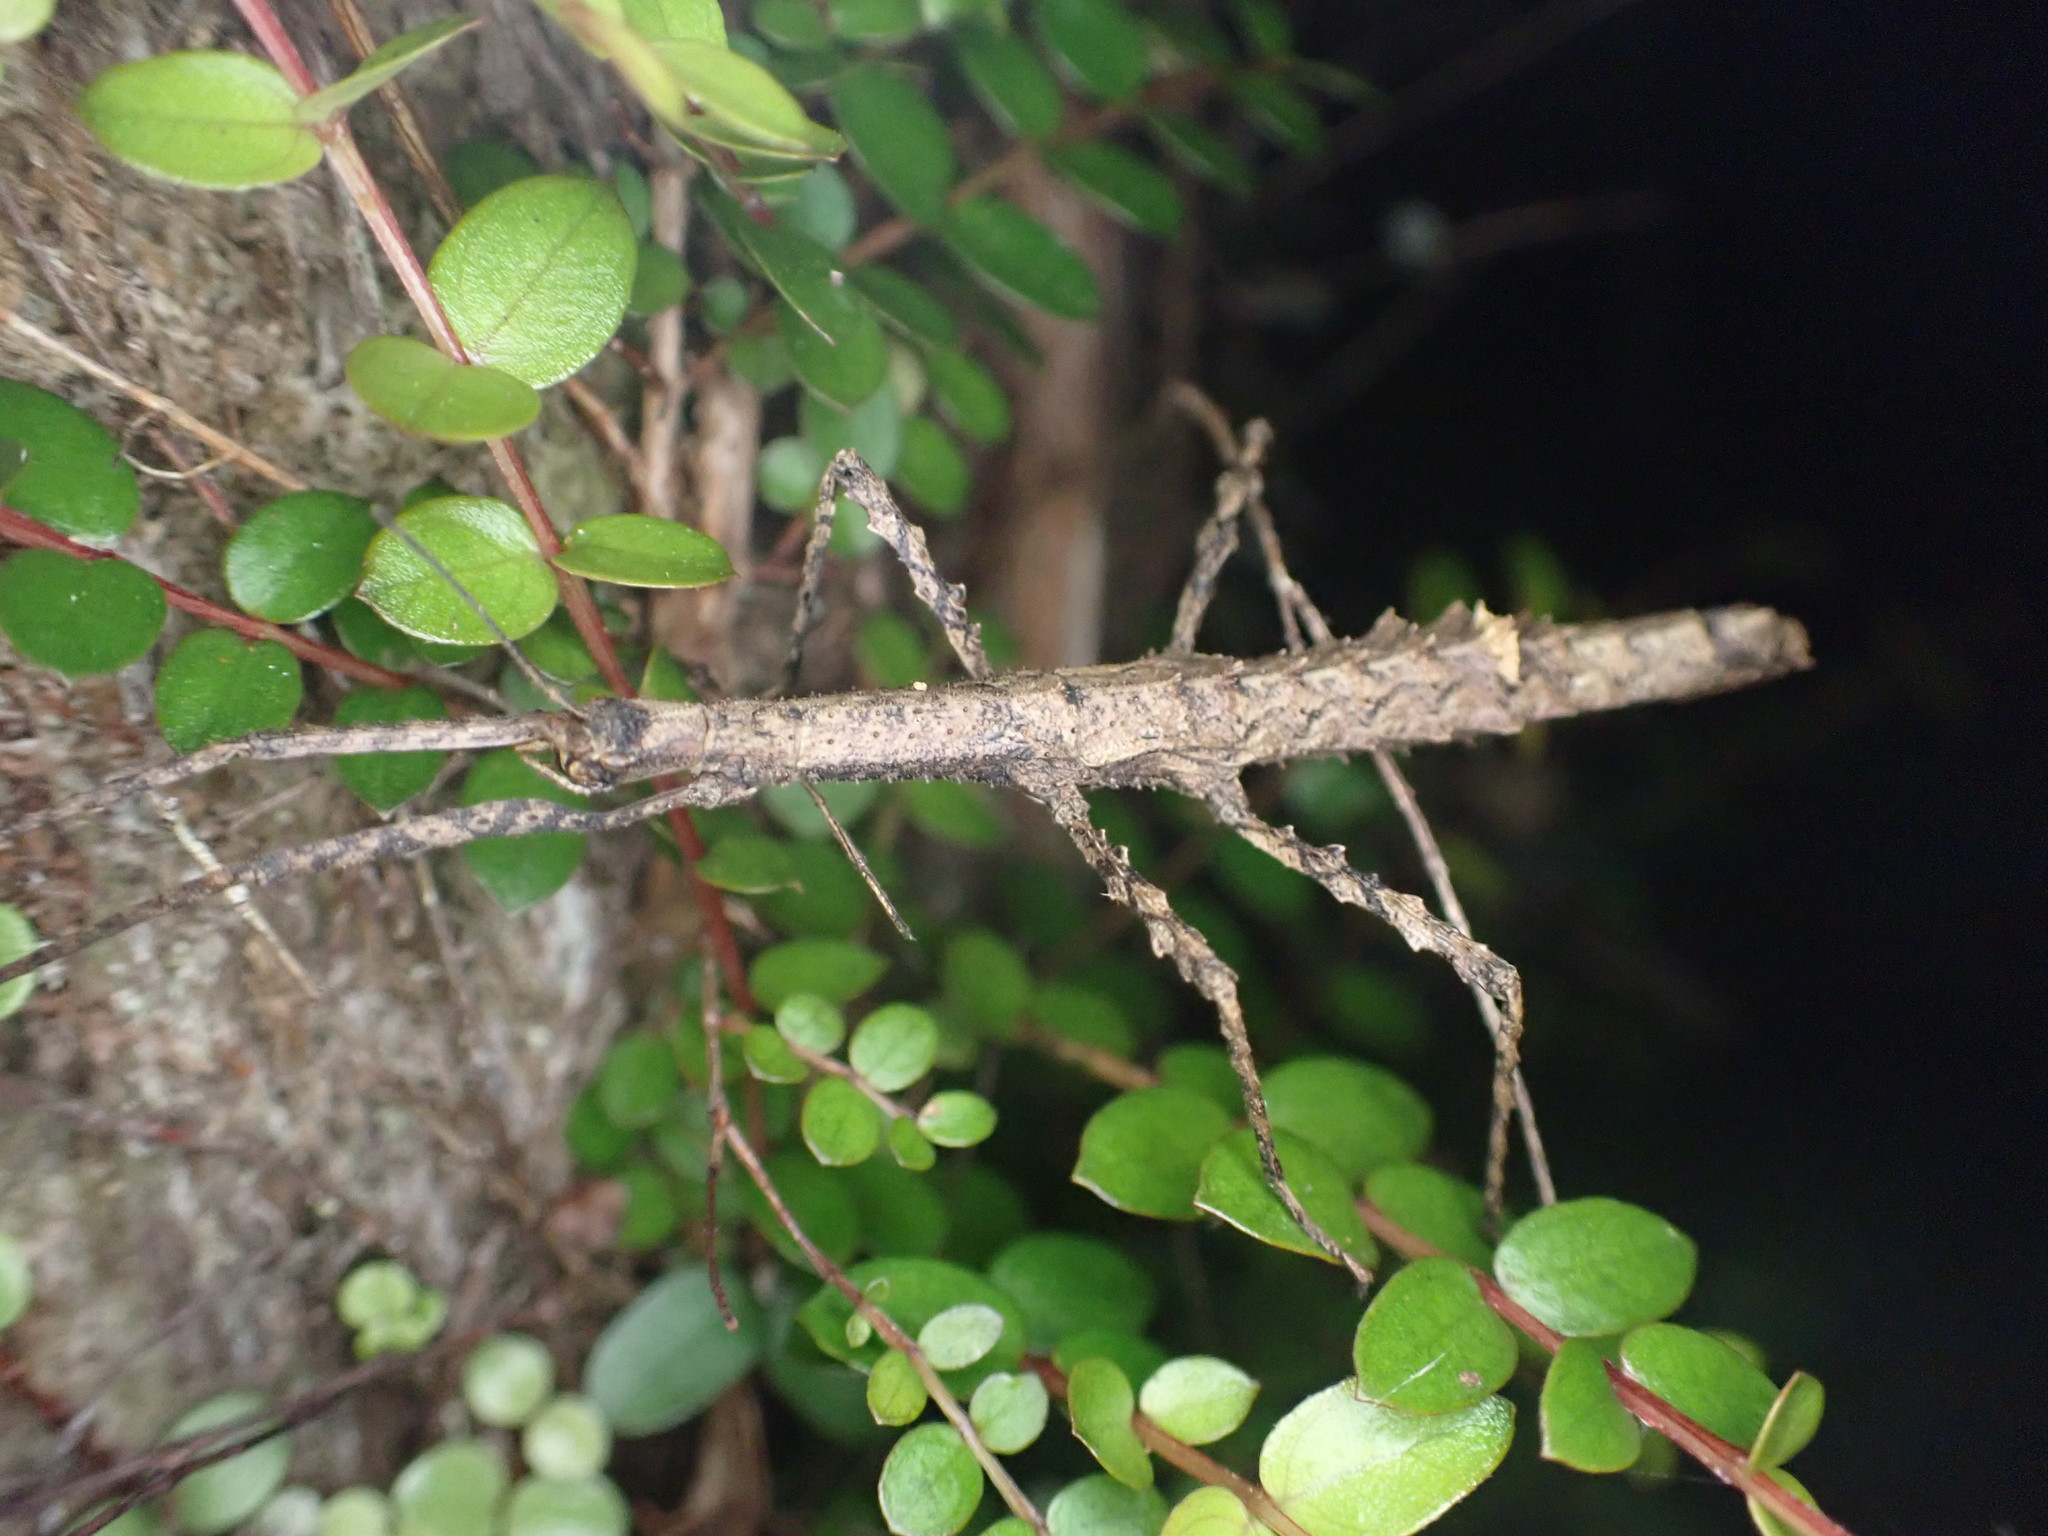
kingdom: Animalia
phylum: Arthropoda
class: Insecta
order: Phasmida
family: Phasmatidae
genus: Spinotectarchus
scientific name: Spinotectarchus acornutus
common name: The spiny ridge-backed stick insect
